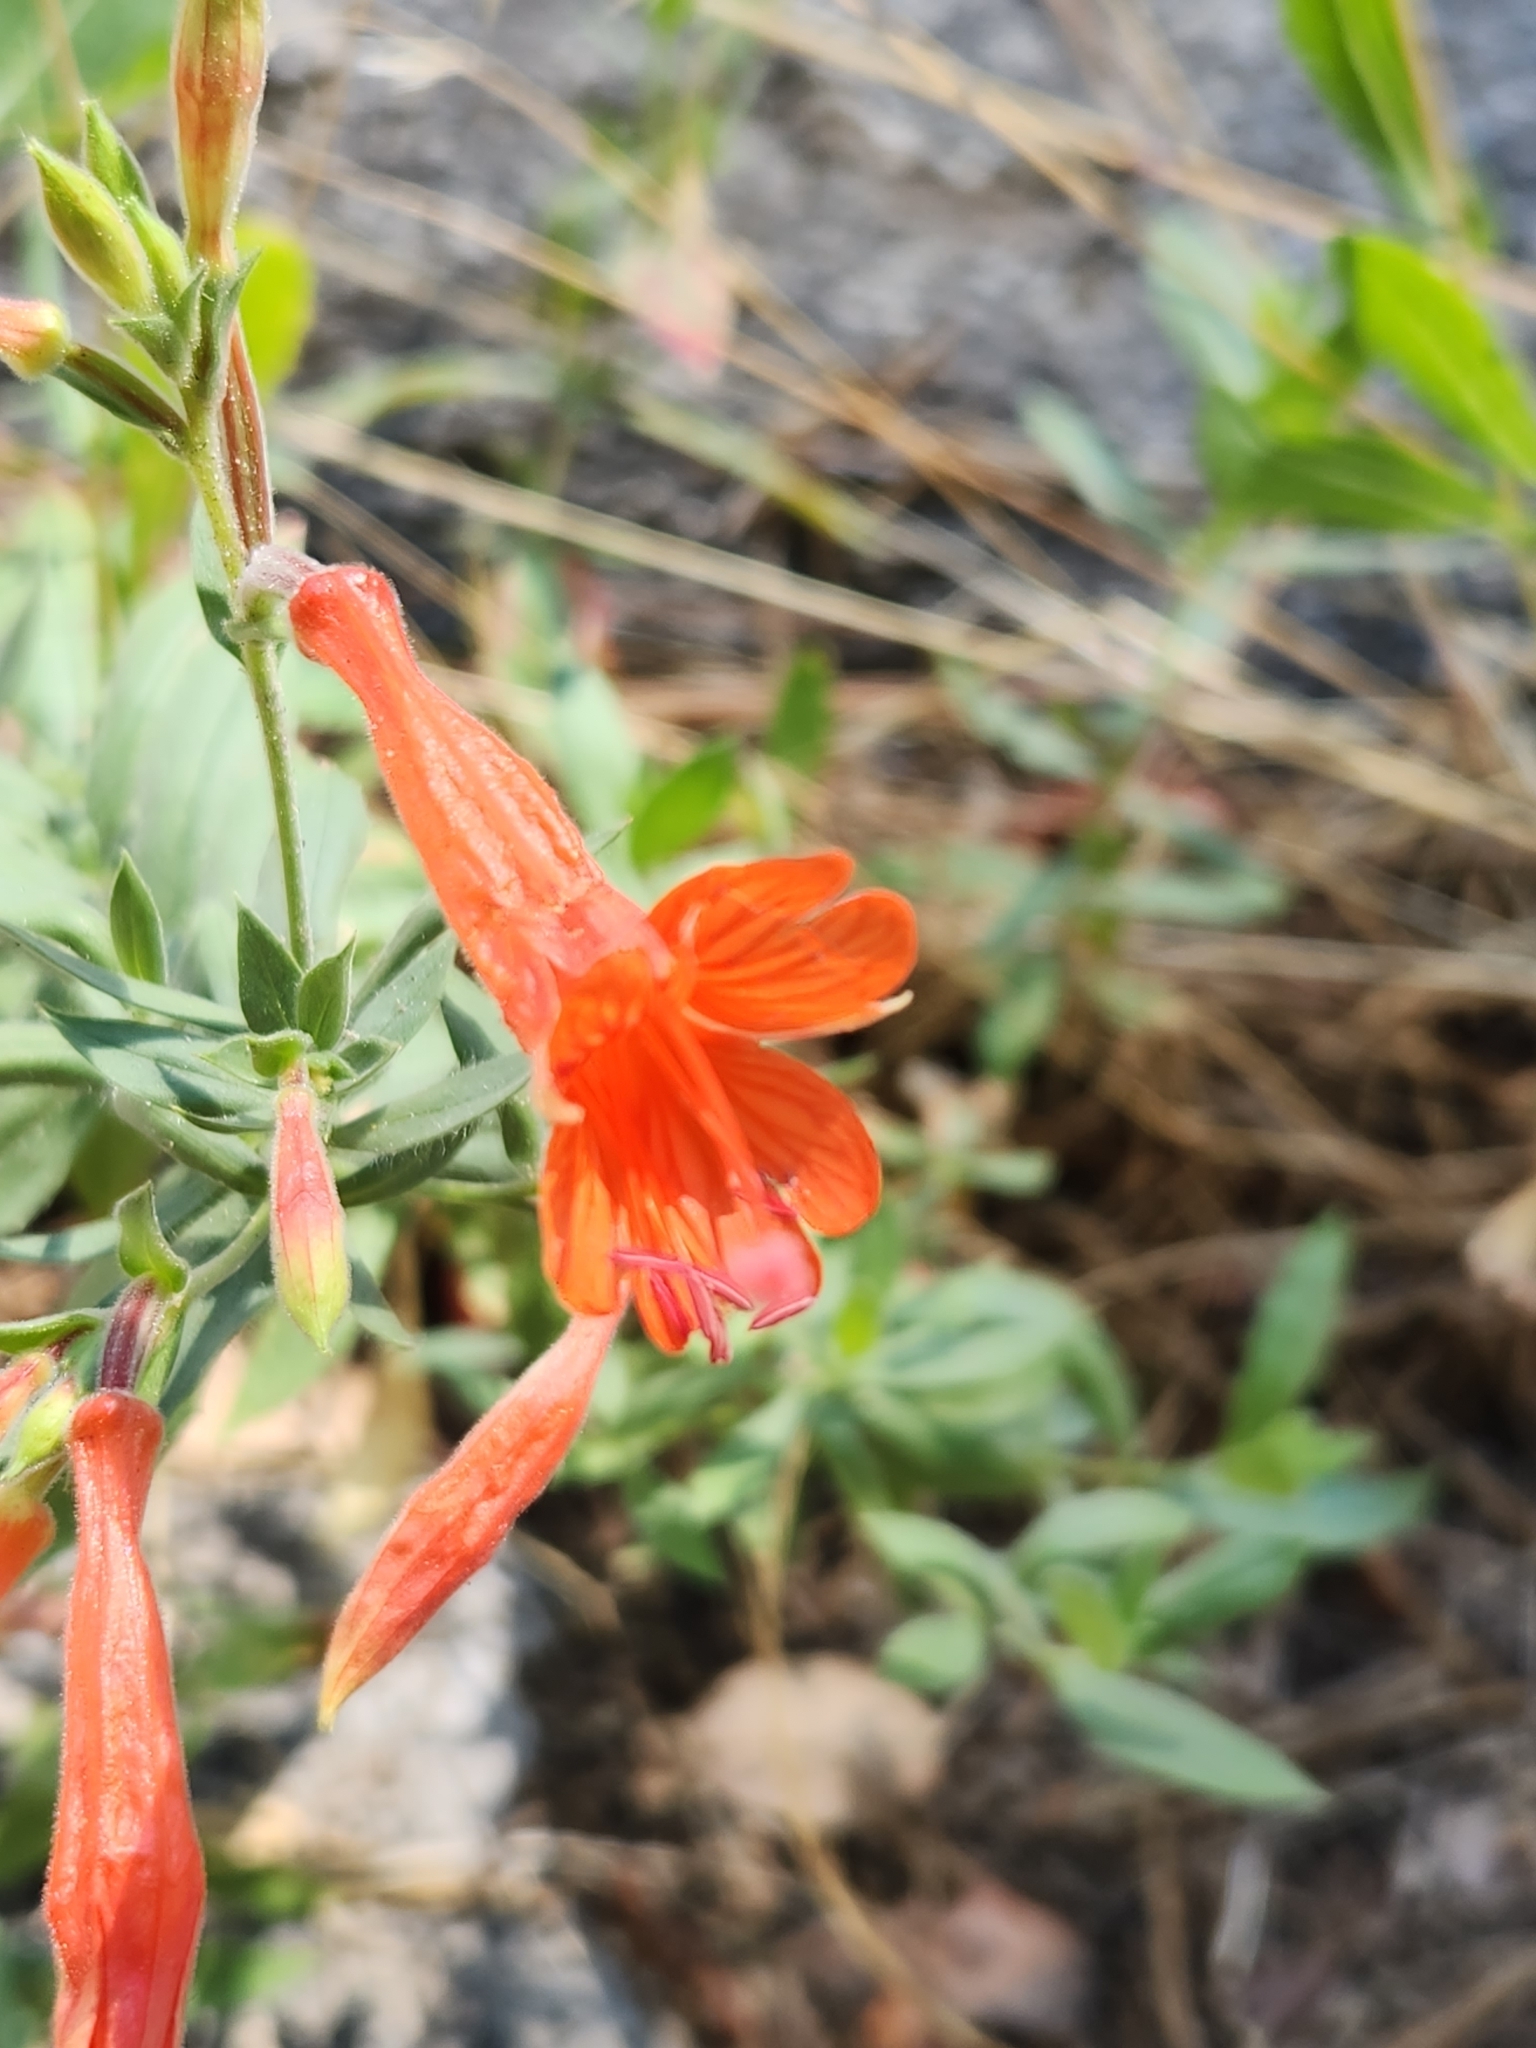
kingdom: Plantae
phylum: Tracheophyta
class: Magnoliopsida
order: Myrtales
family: Onagraceae
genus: Epilobium
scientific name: Epilobium canum
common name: California-fuchsia
